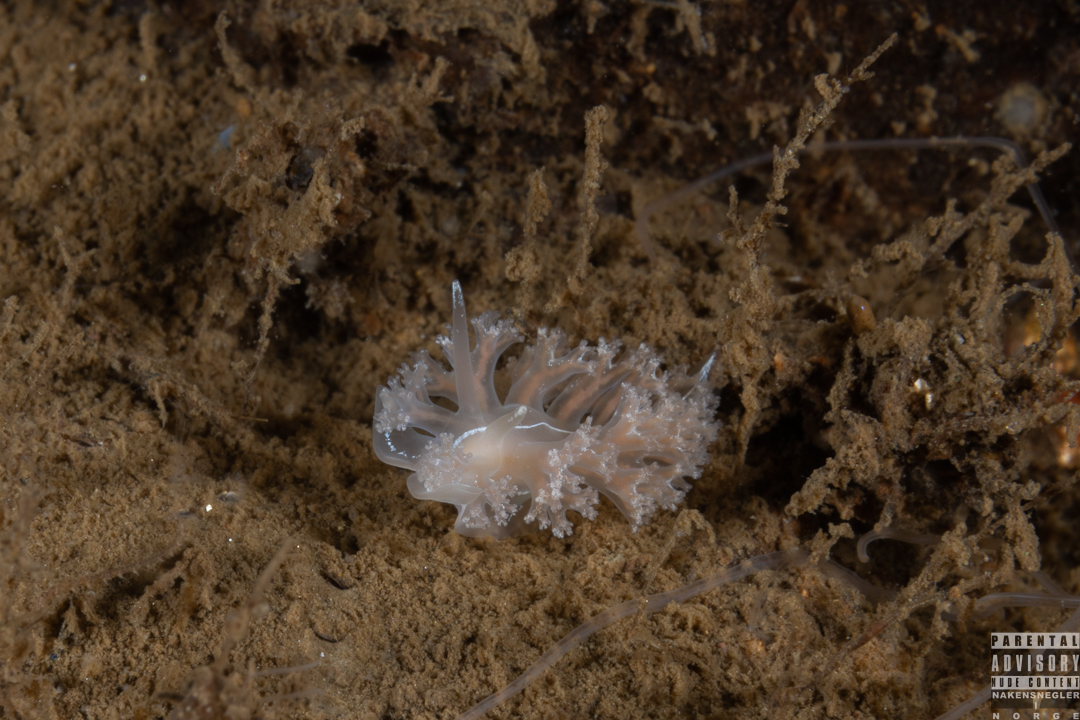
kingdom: Animalia
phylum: Mollusca
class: Gastropoda
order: Nudibranchia
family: Heroidae
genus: Hero
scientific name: Hero formosa
